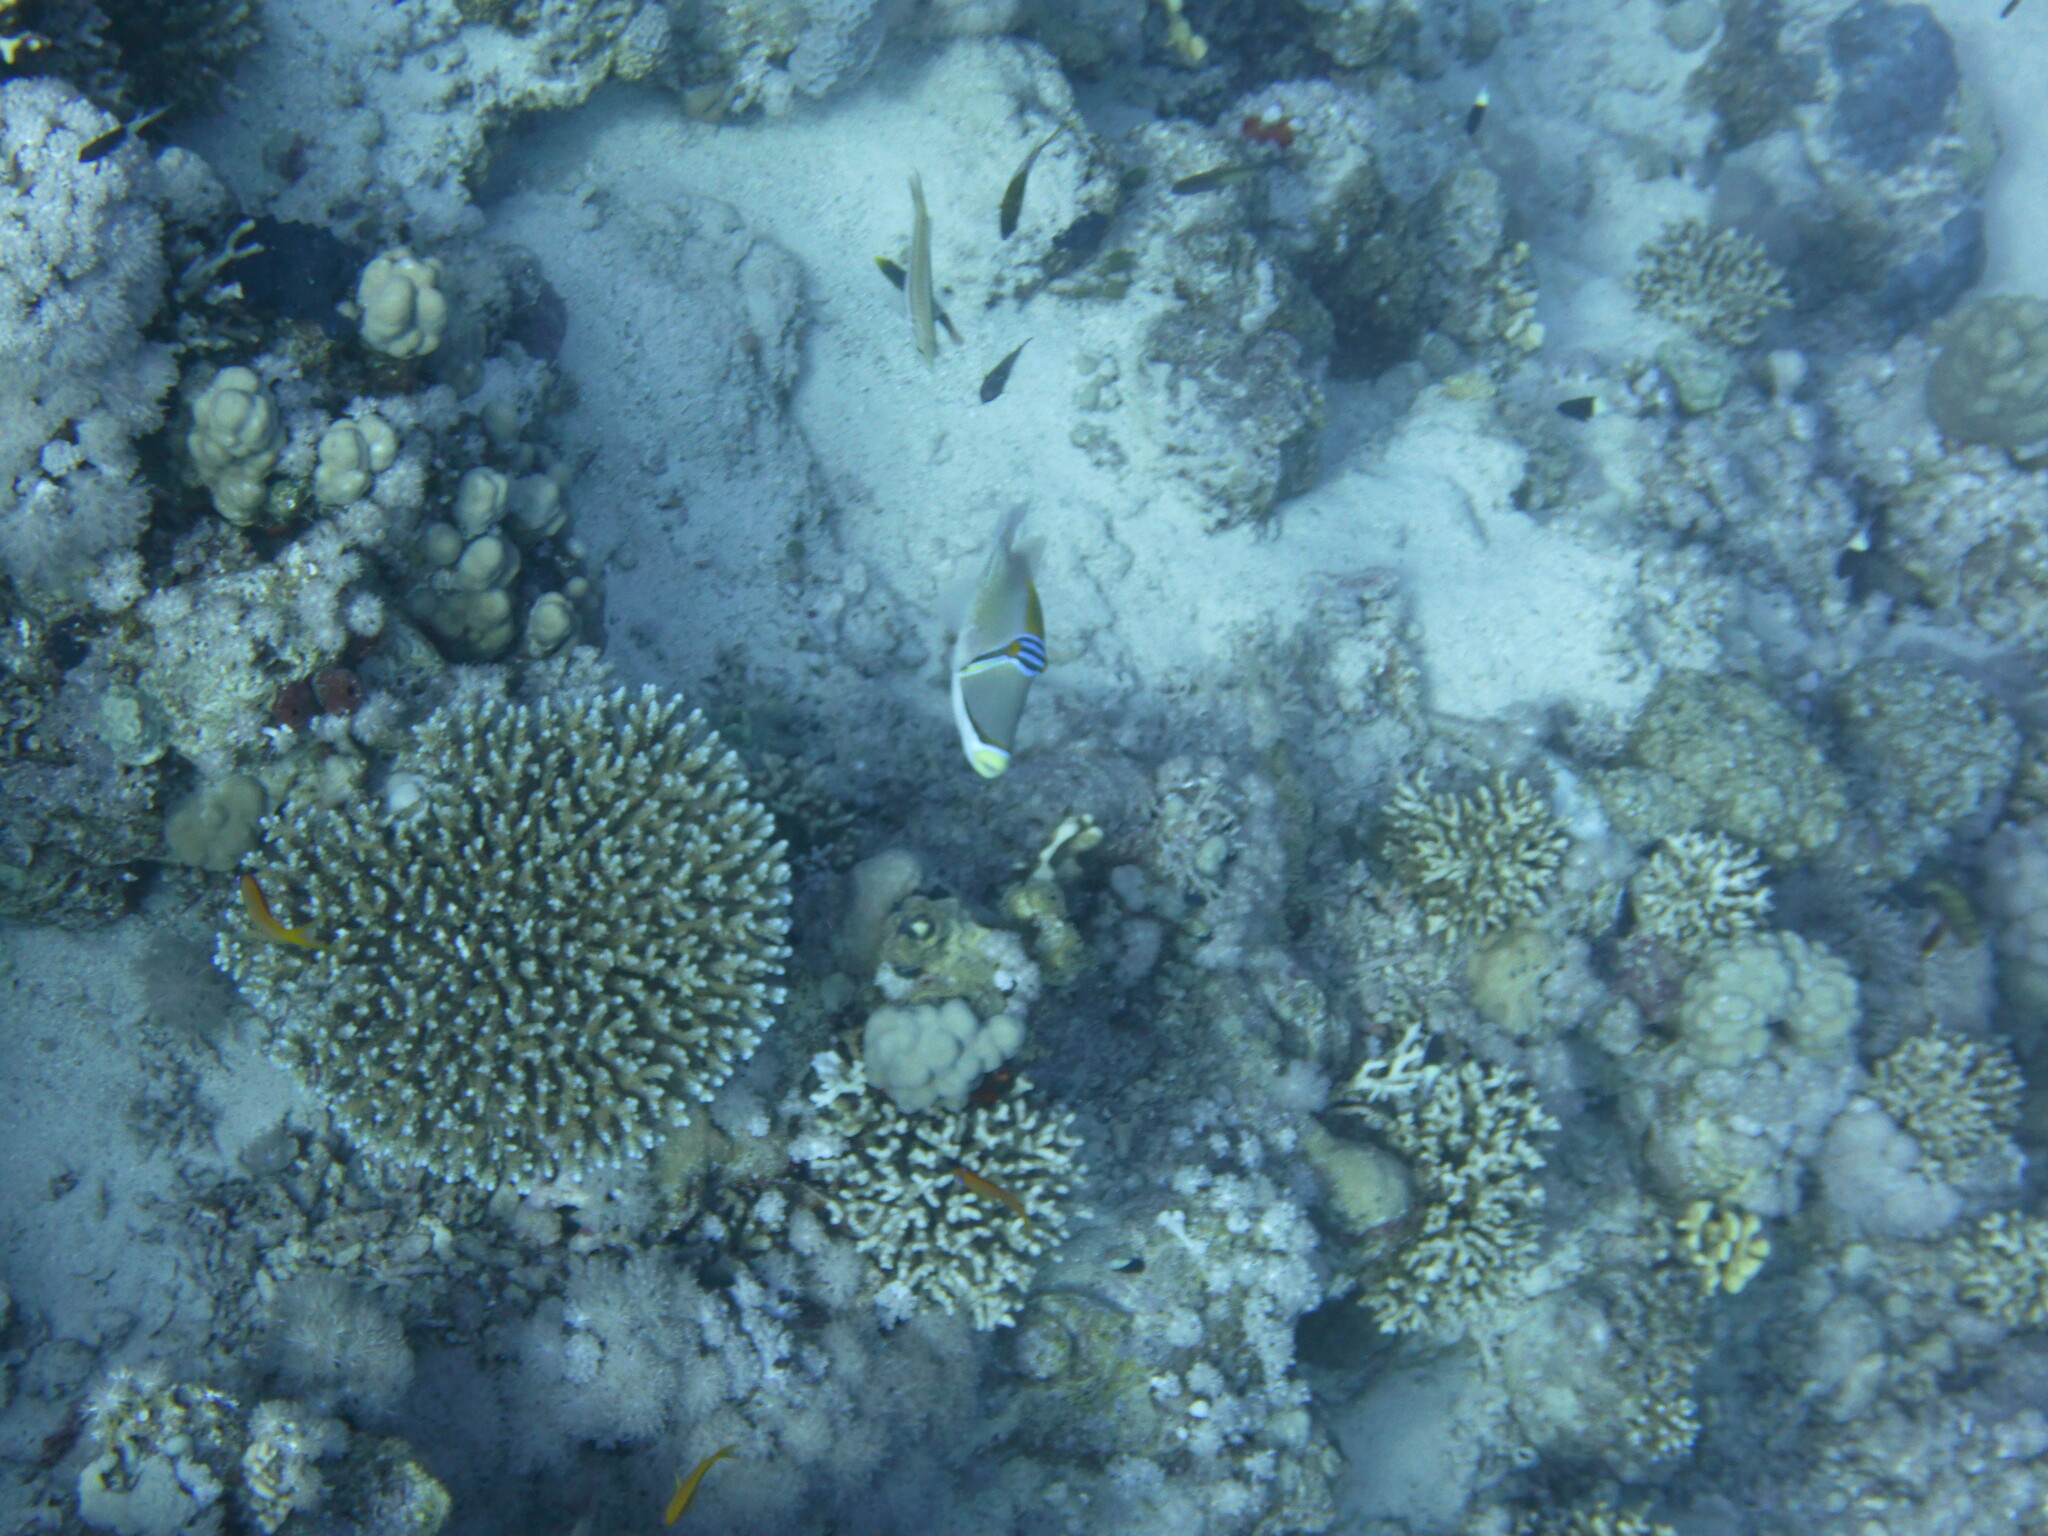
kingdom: Animalia
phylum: Chordata
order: Tetraodontiformes
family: Balistidae
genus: Rhinecanthus
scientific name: Rhinecanthus assasi
